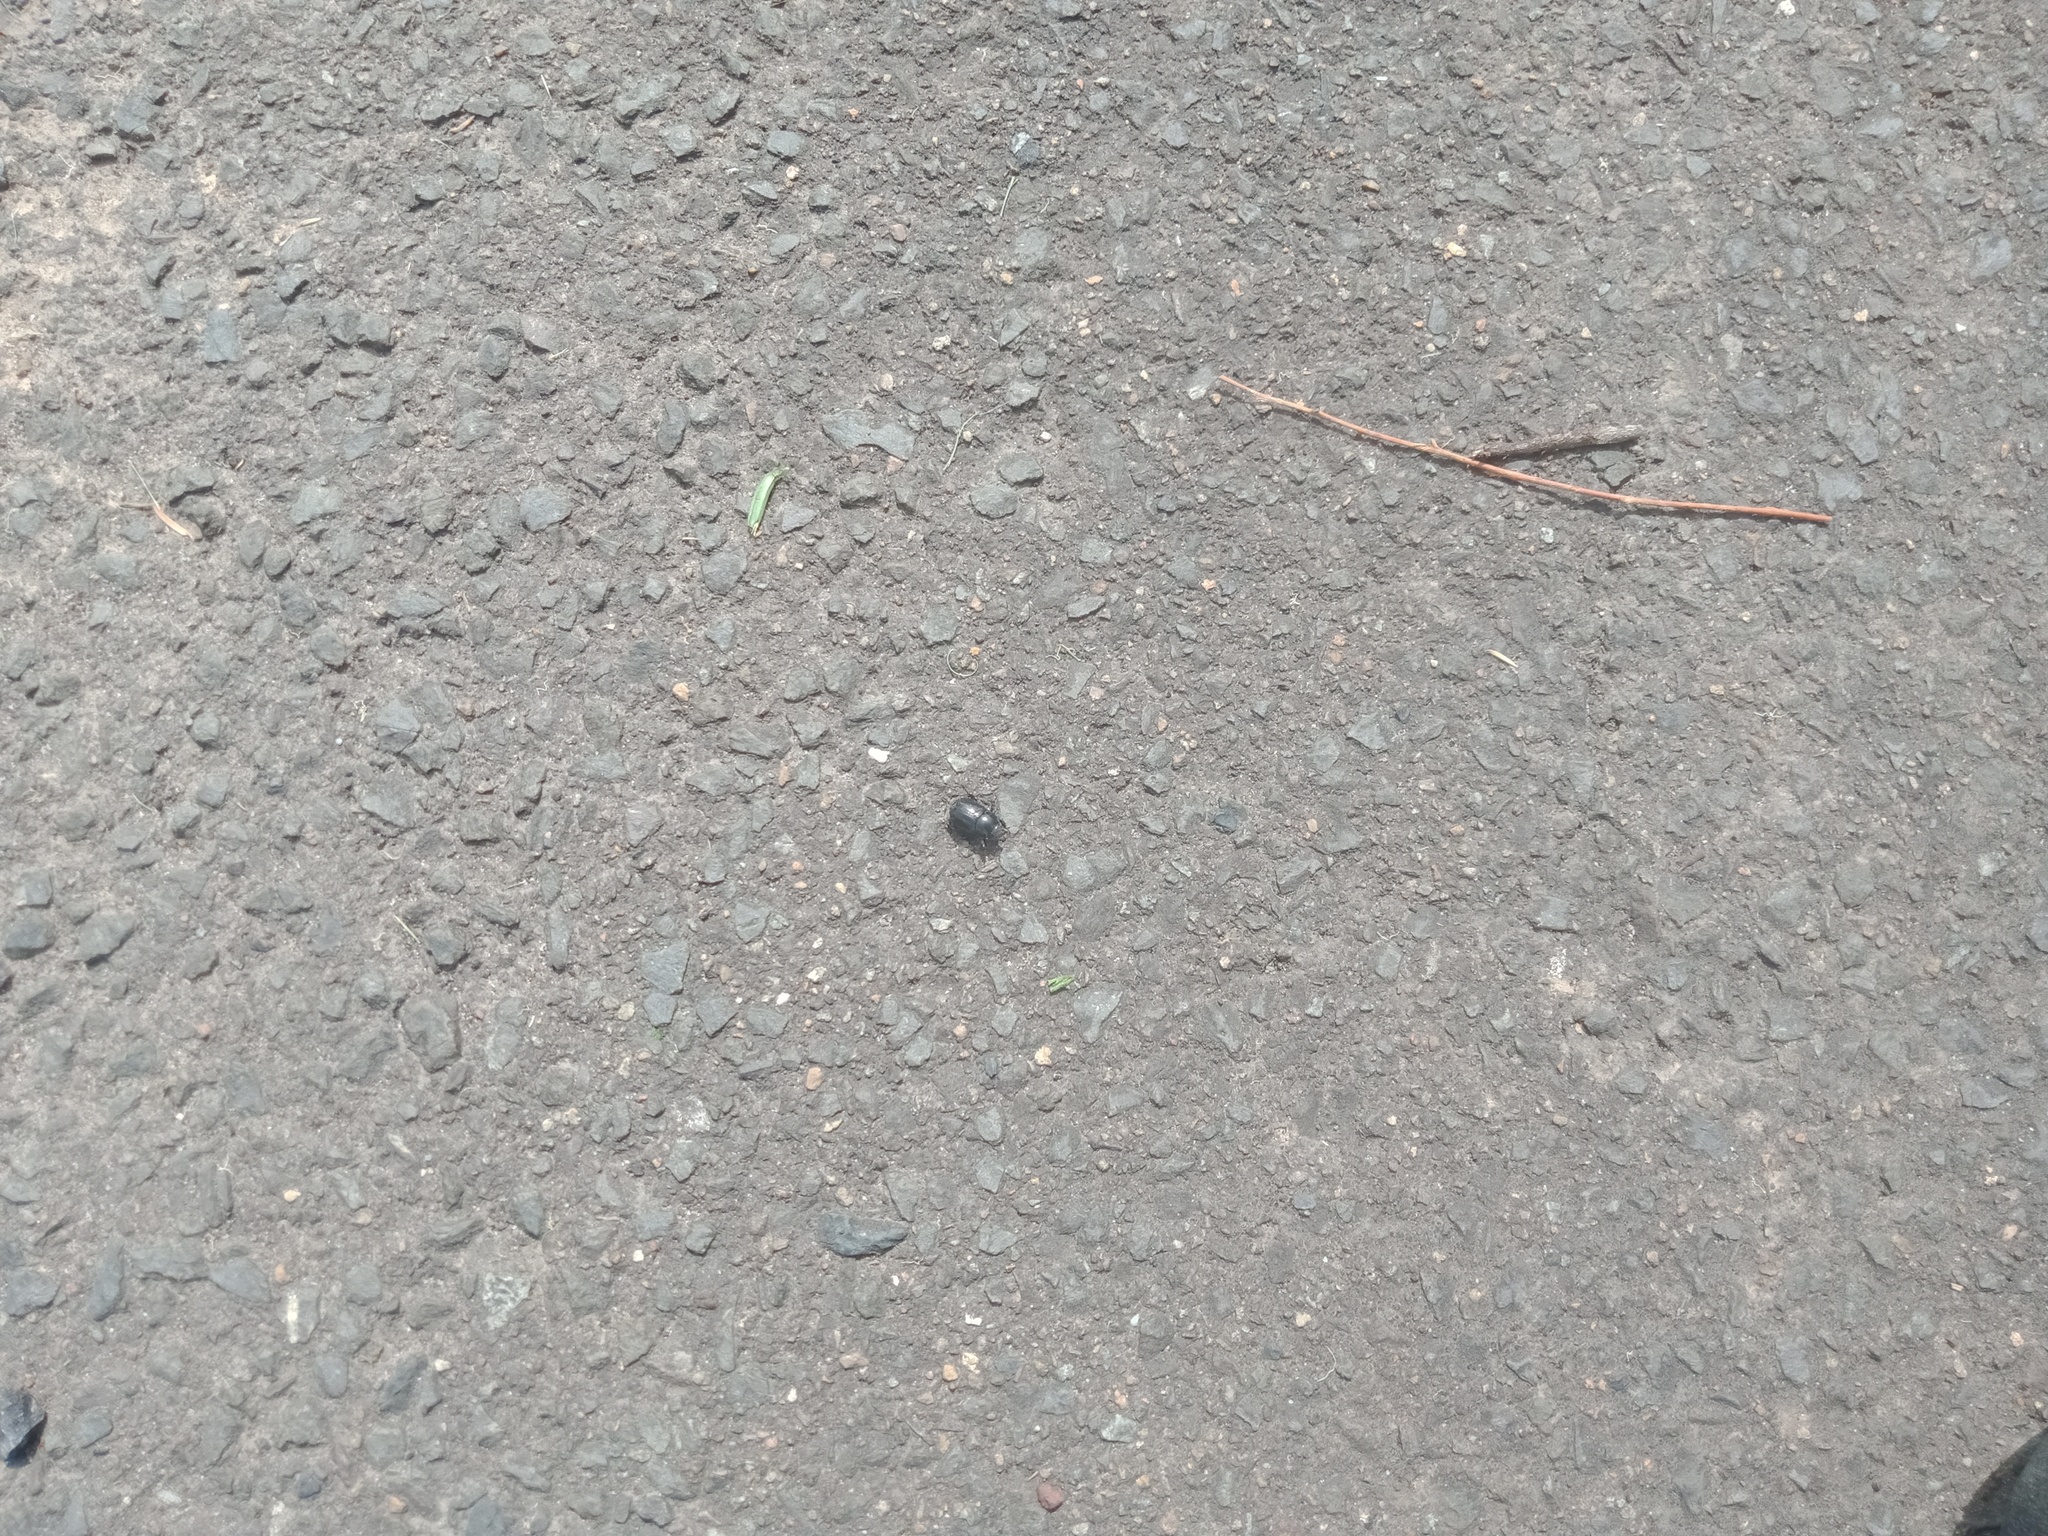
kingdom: Animalia
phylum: Arthropoda
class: Insecta
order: Coleoptera
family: Scarabaeidae
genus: Heteronychus
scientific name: Heteronychus arator
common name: African black beetle
